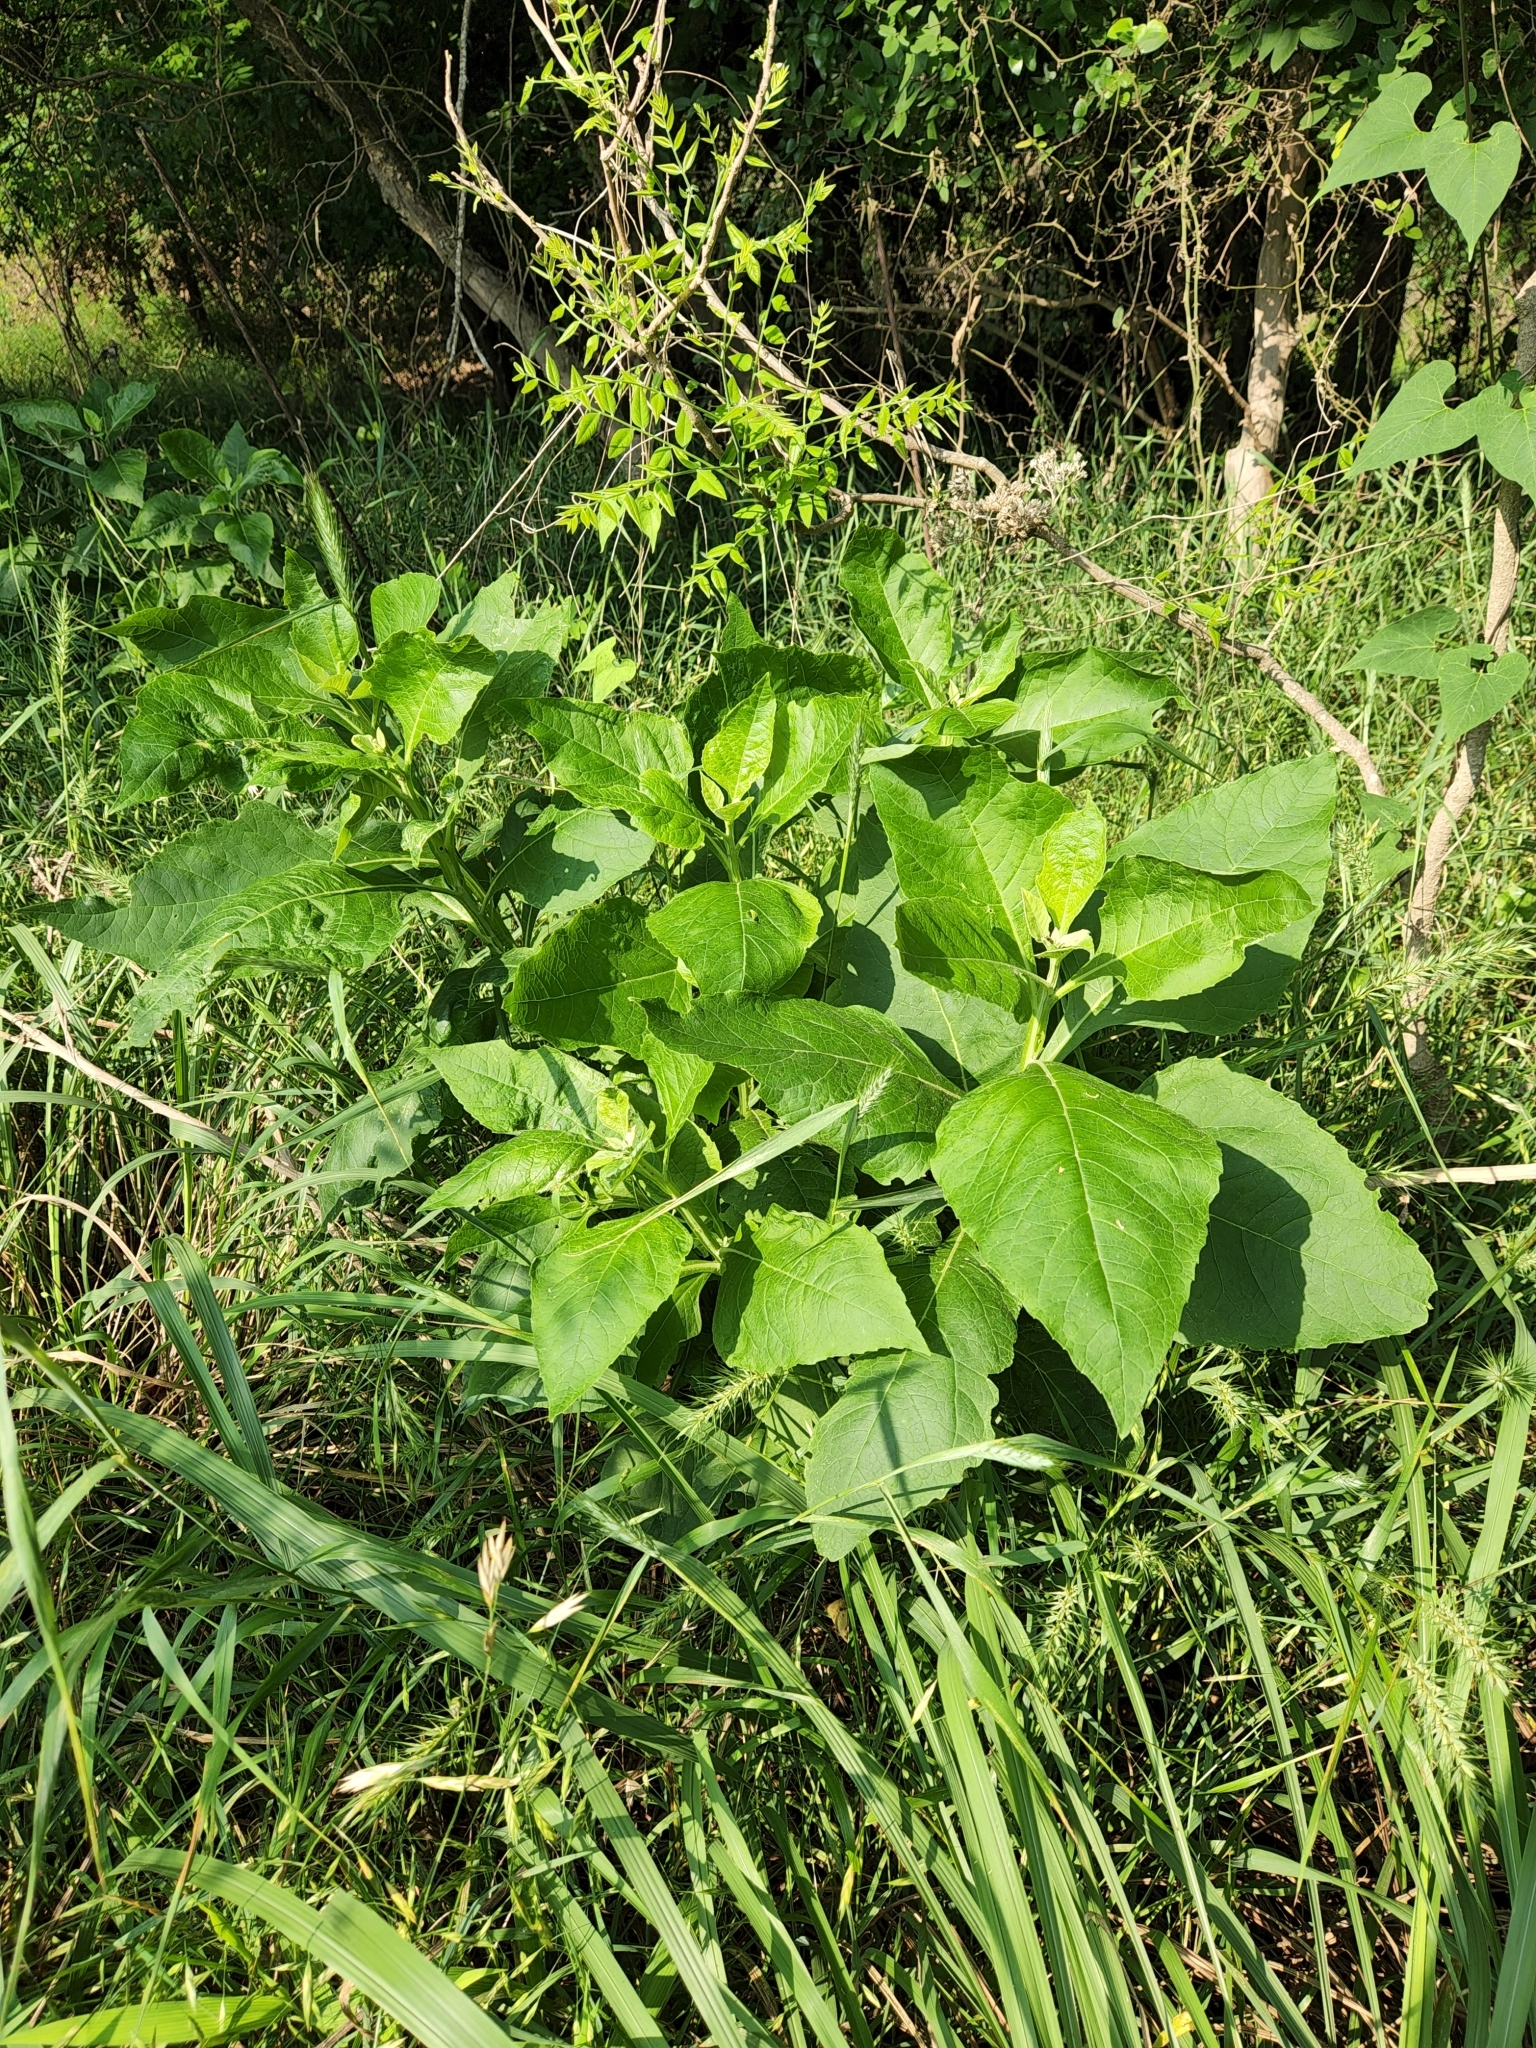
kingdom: Plantae
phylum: Tracheophyta
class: Magnoliopsida
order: Asterales
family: Asteraceae
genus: Verbesina
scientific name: Verbesina virginica
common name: Frostweed
